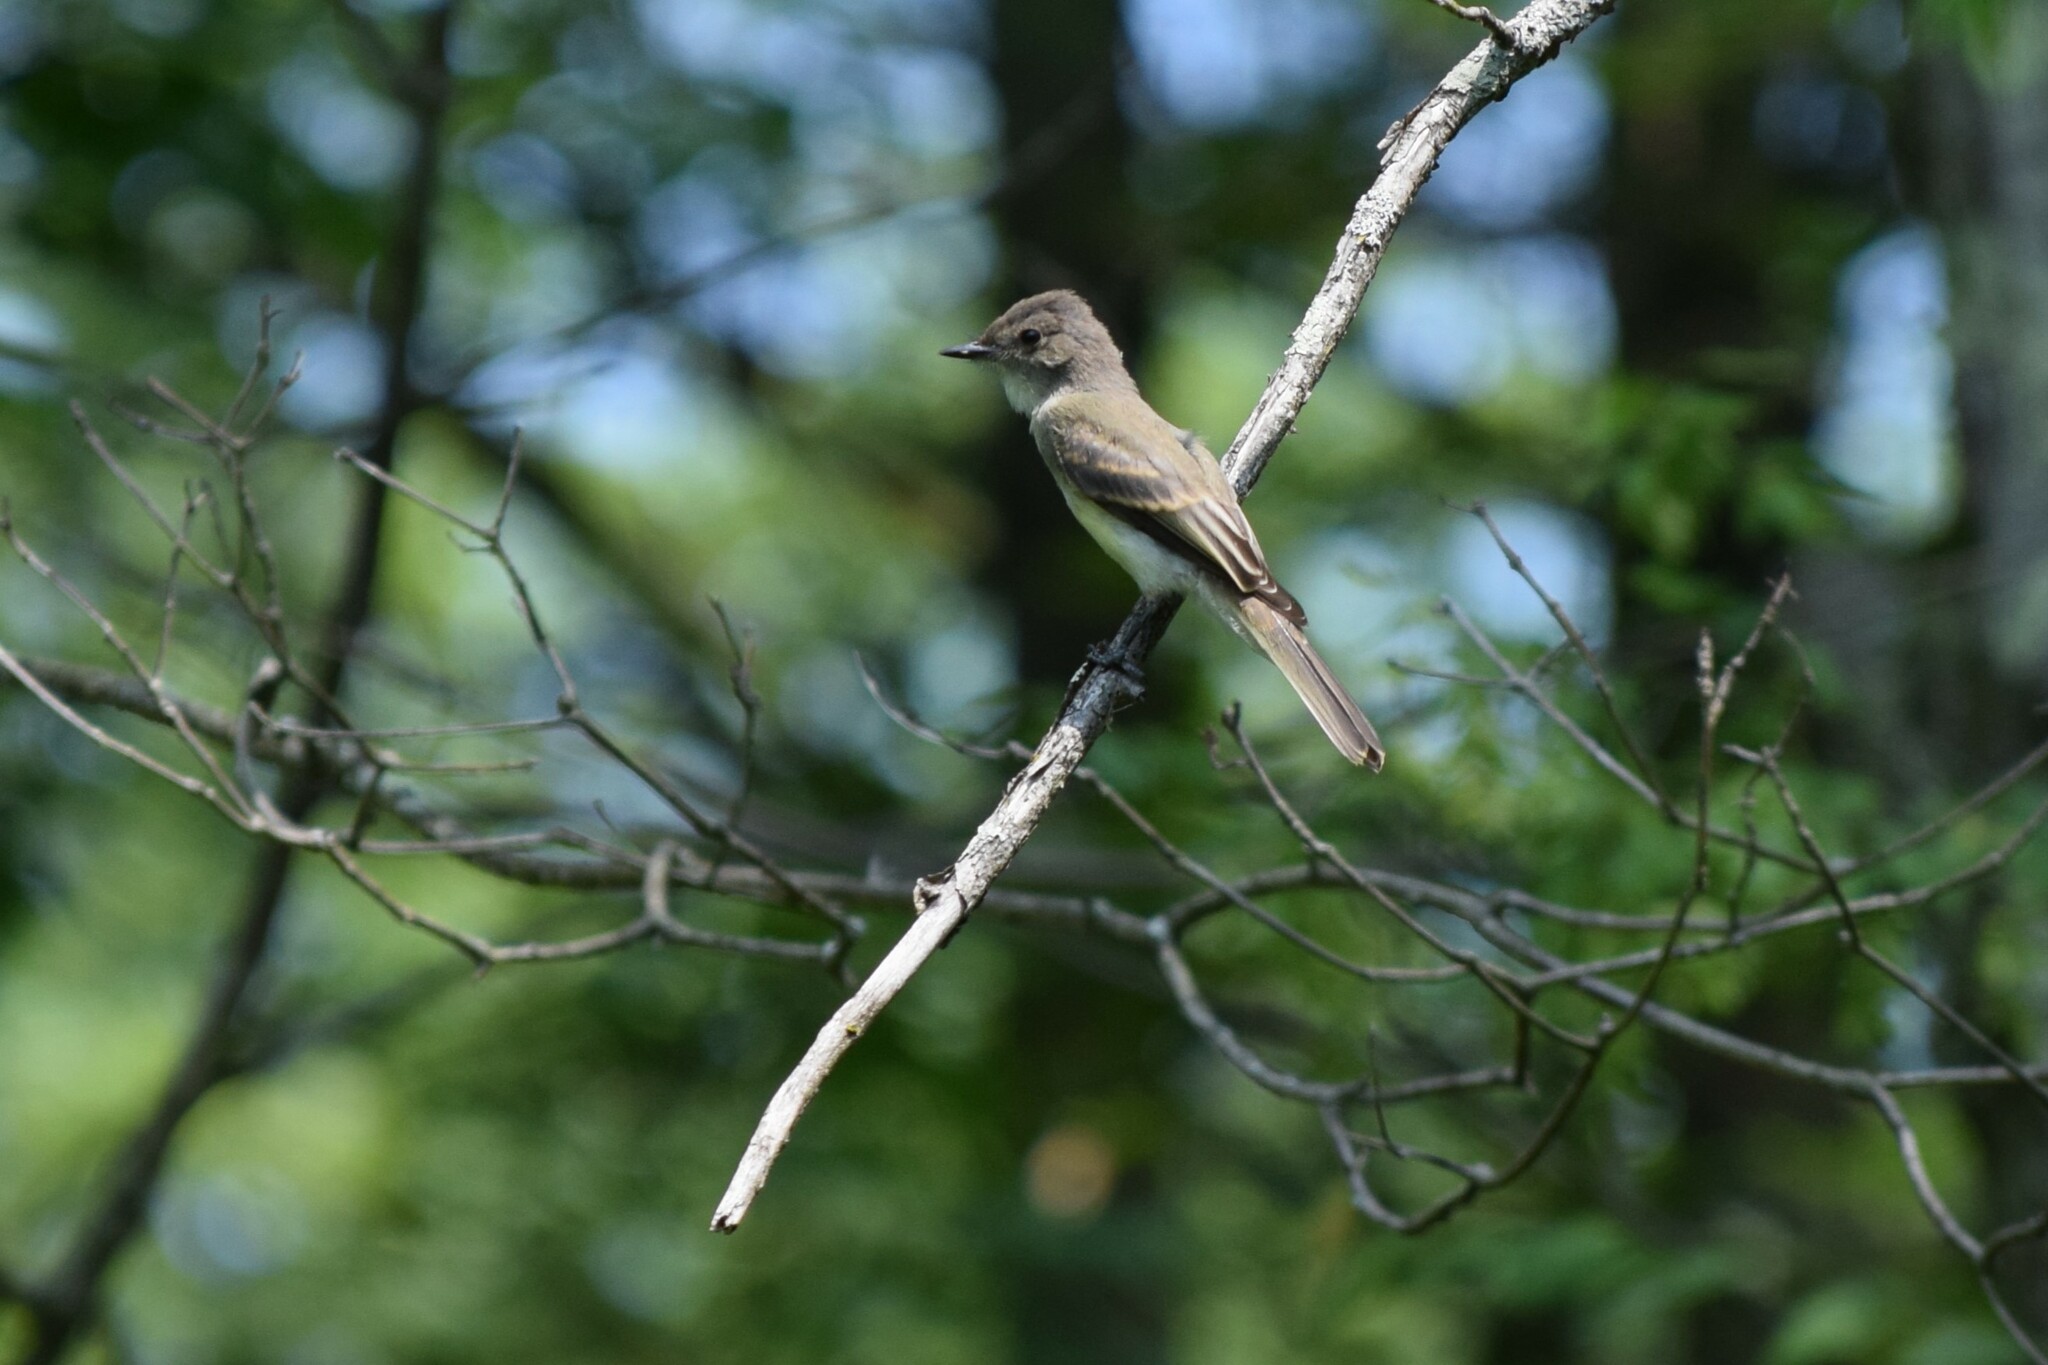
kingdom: Animalia
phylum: Chordata
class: Aves
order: Passeriformes
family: Tyrannidae
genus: Sayornis
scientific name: Sayornis phoebe
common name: Eastern phoebe
